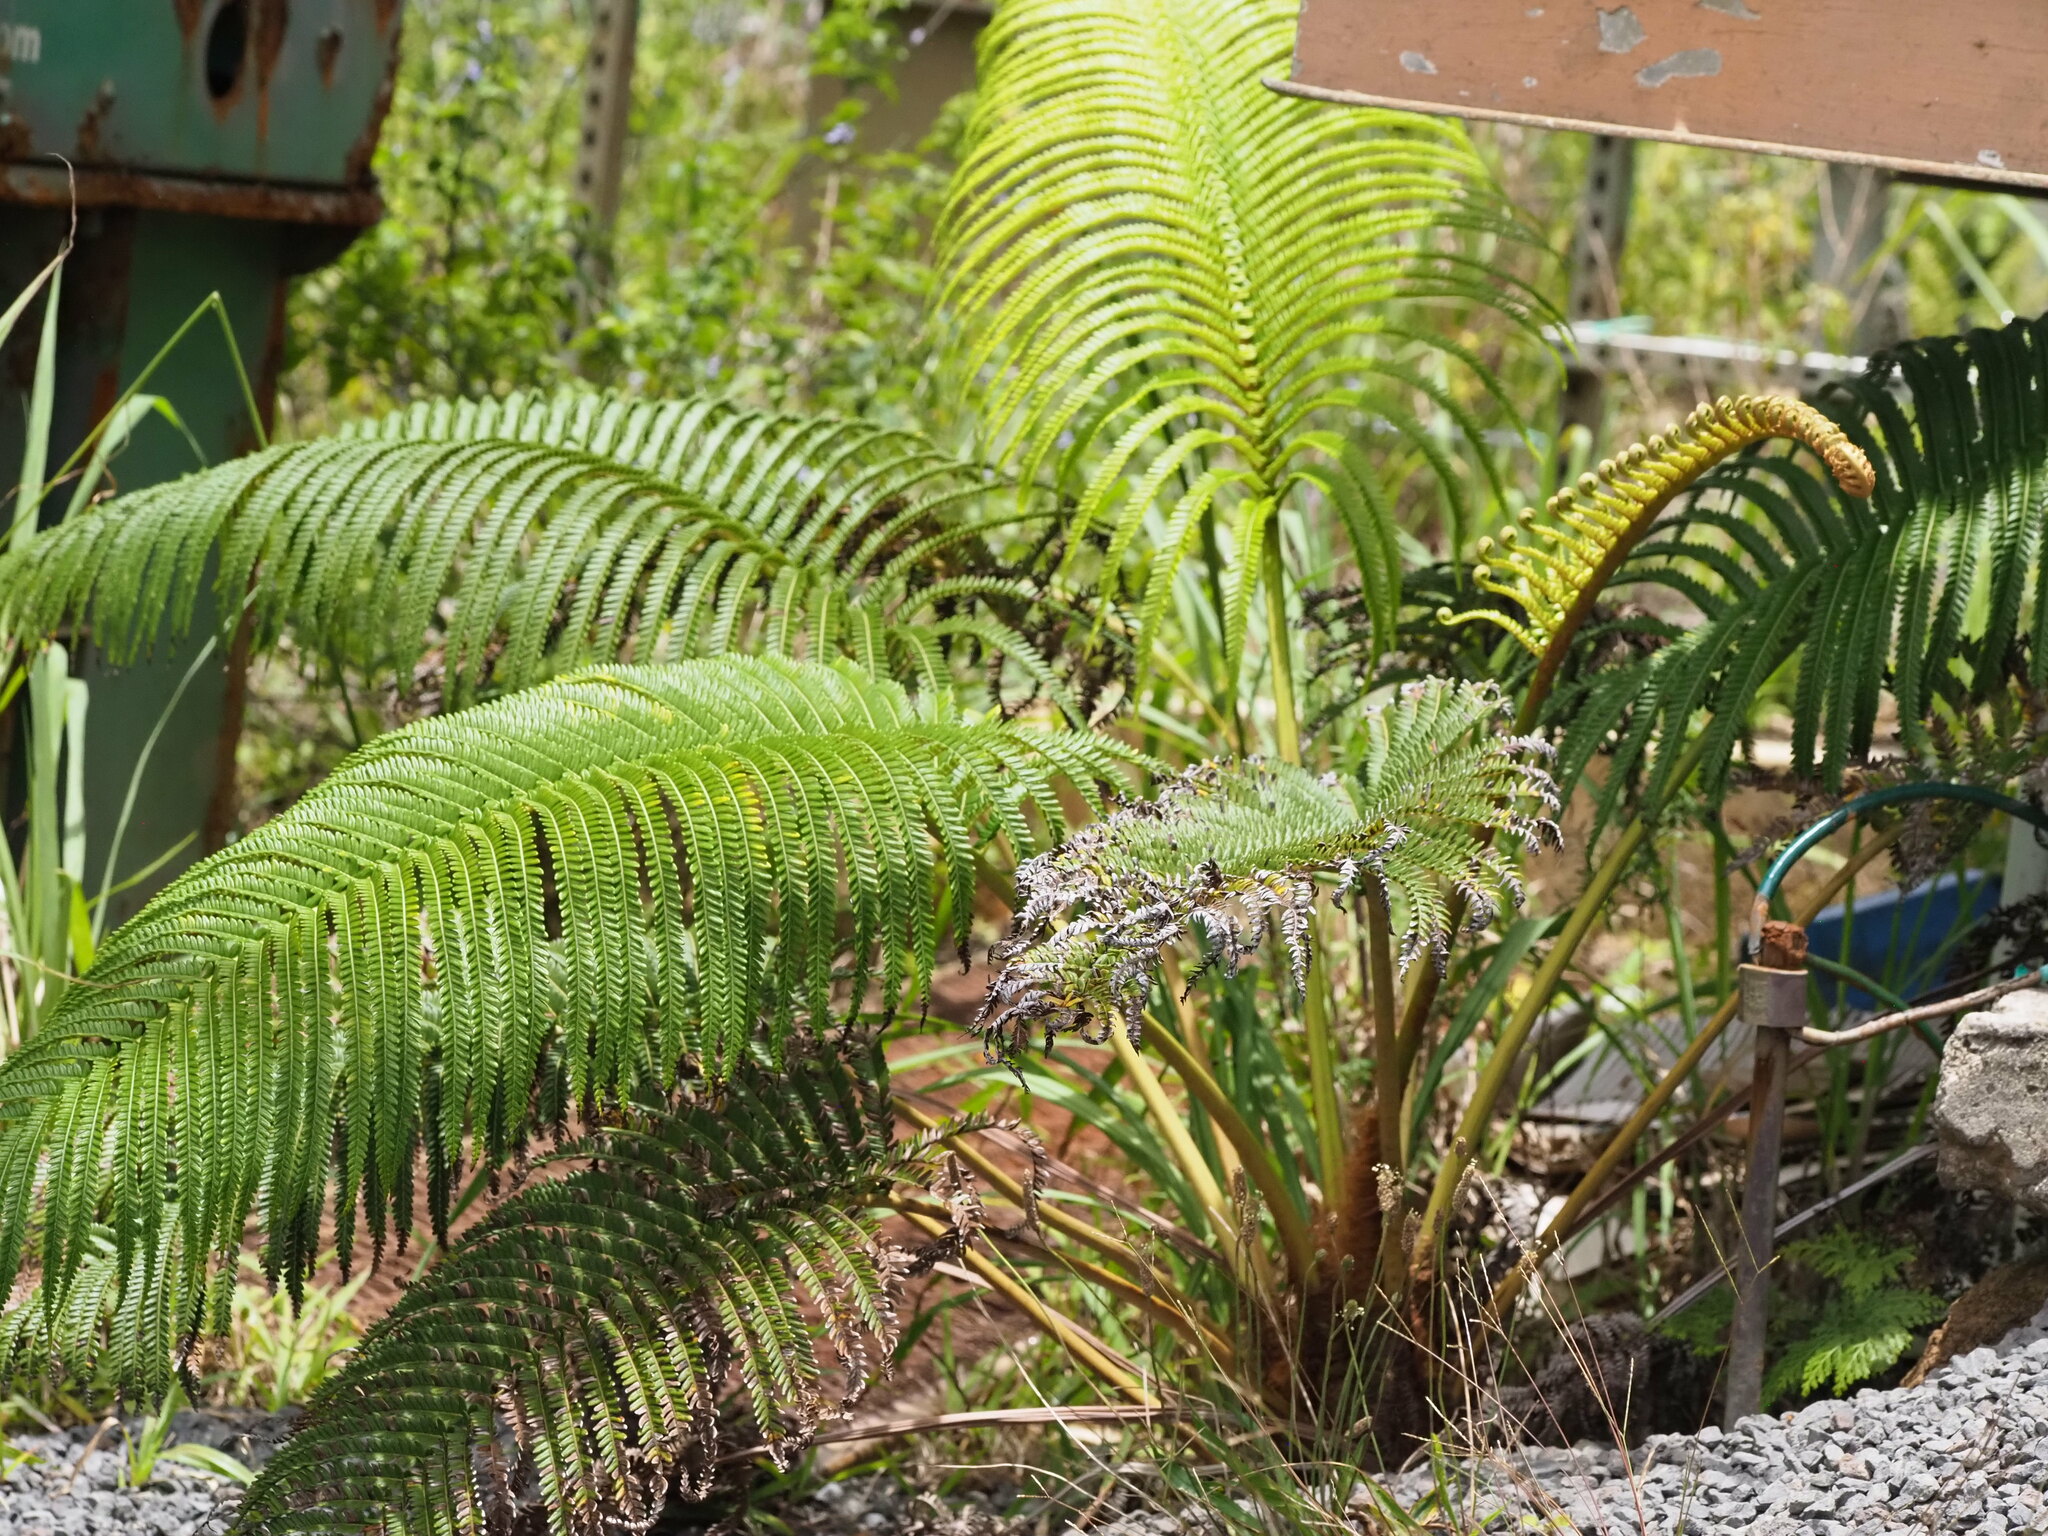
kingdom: Plantae
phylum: Tracheophyta
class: Polypodiopsida
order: Polypodiales
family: Blechnaceae
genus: Sadleria
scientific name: Sadleria cyatheoides
